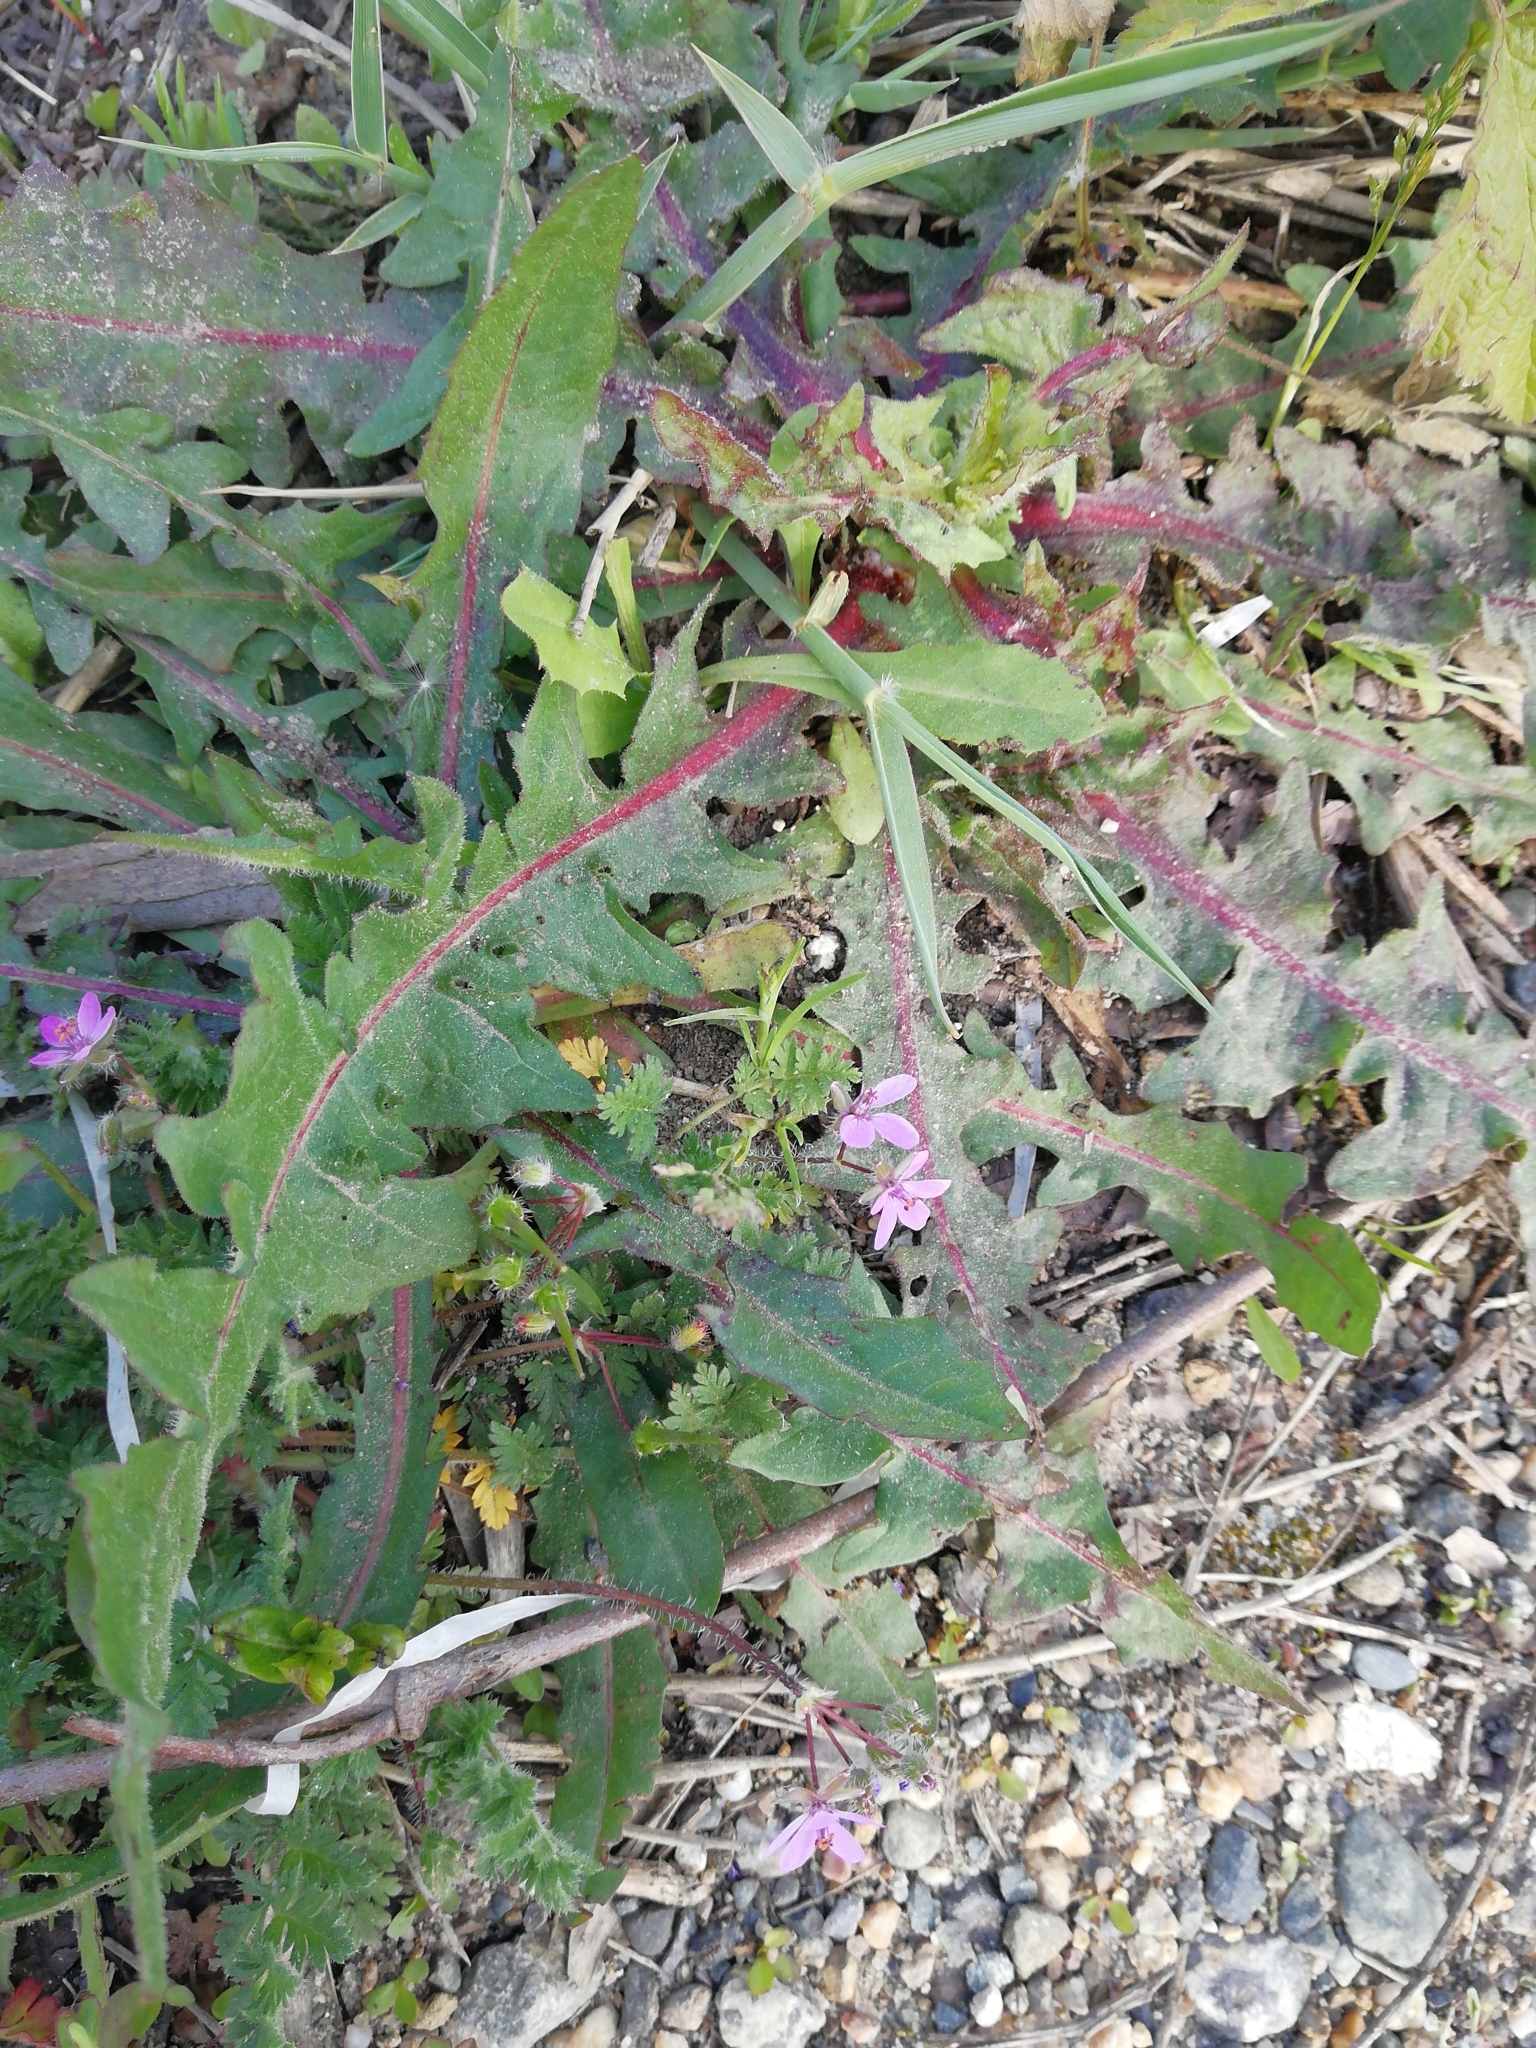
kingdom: Plantae
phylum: Tracheophyta
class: Magnoliopsida
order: Geraniales
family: Geraniaceae
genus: Erodium
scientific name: Erodium cicutarium
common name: Common stork's-bill
